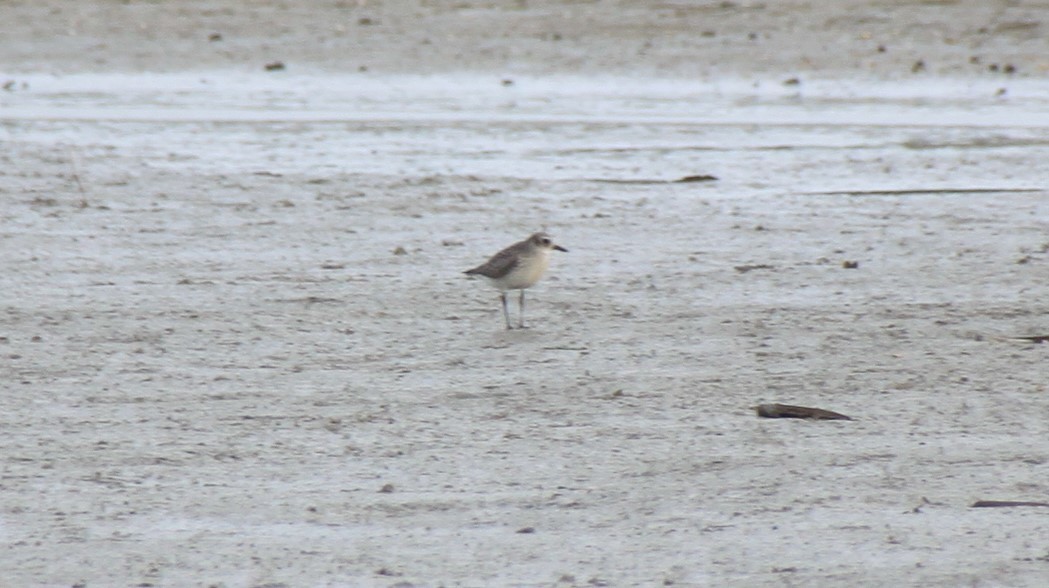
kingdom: Animalia
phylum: Chordata
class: Aves
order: Charadriiformes
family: Charadriidae
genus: Pluvialis
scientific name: Pluvialis squatarola
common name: Grey plover
